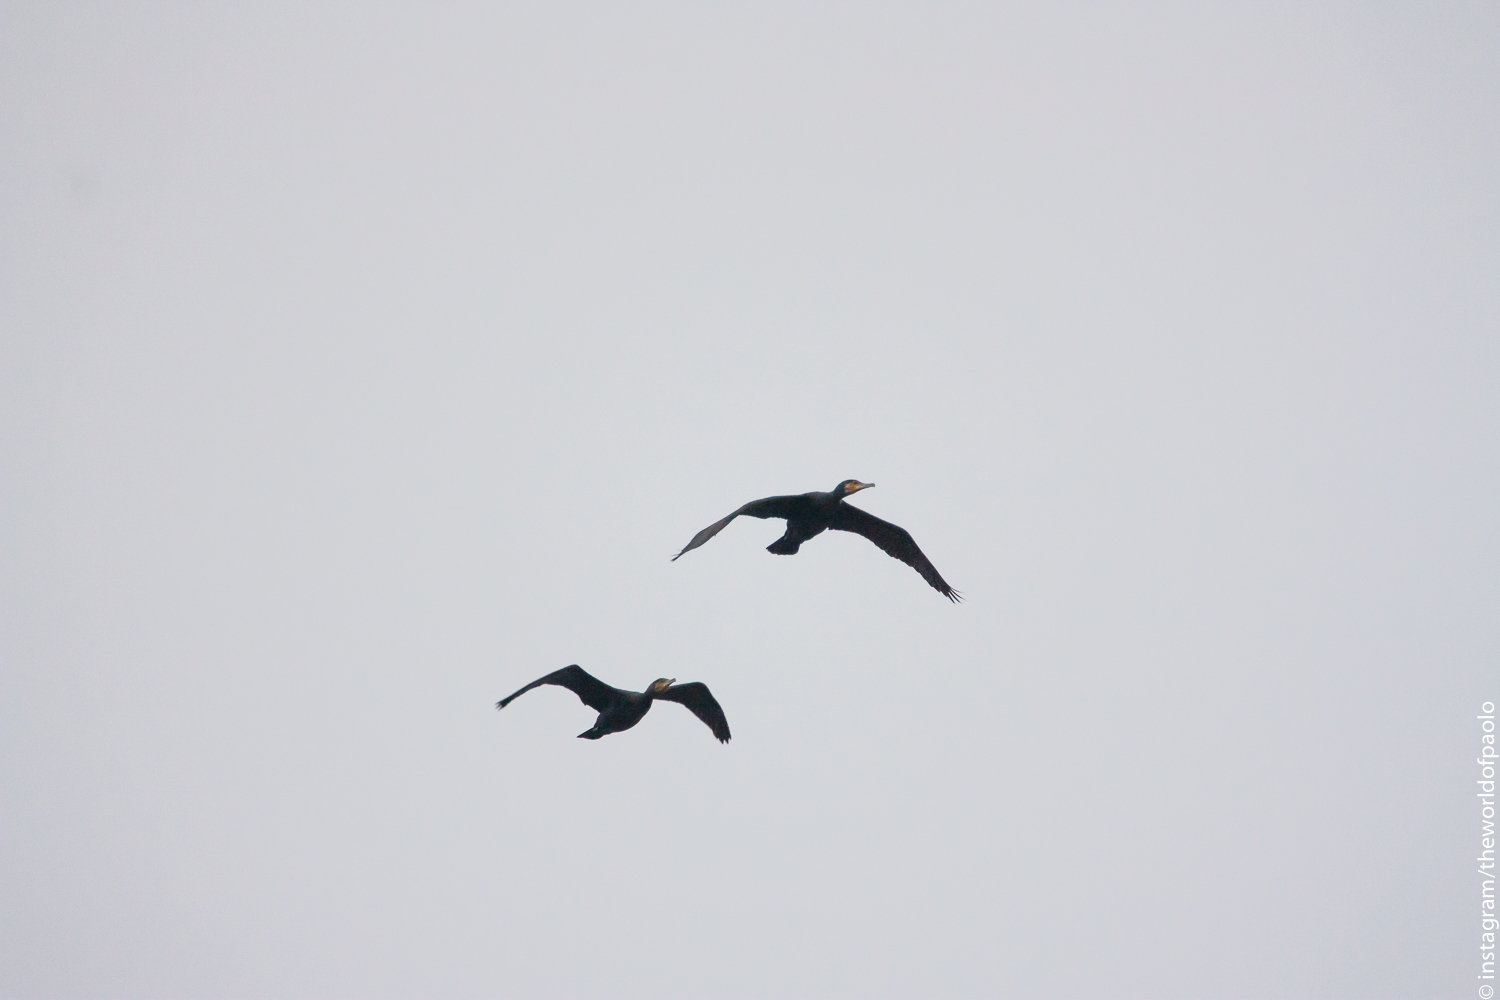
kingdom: Animalia
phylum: Chordata
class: Aves
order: Suliformes
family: Phalacrocoracidae
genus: Phalacrocorax
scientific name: Phalacrocorax carbo
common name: Great cormorant
